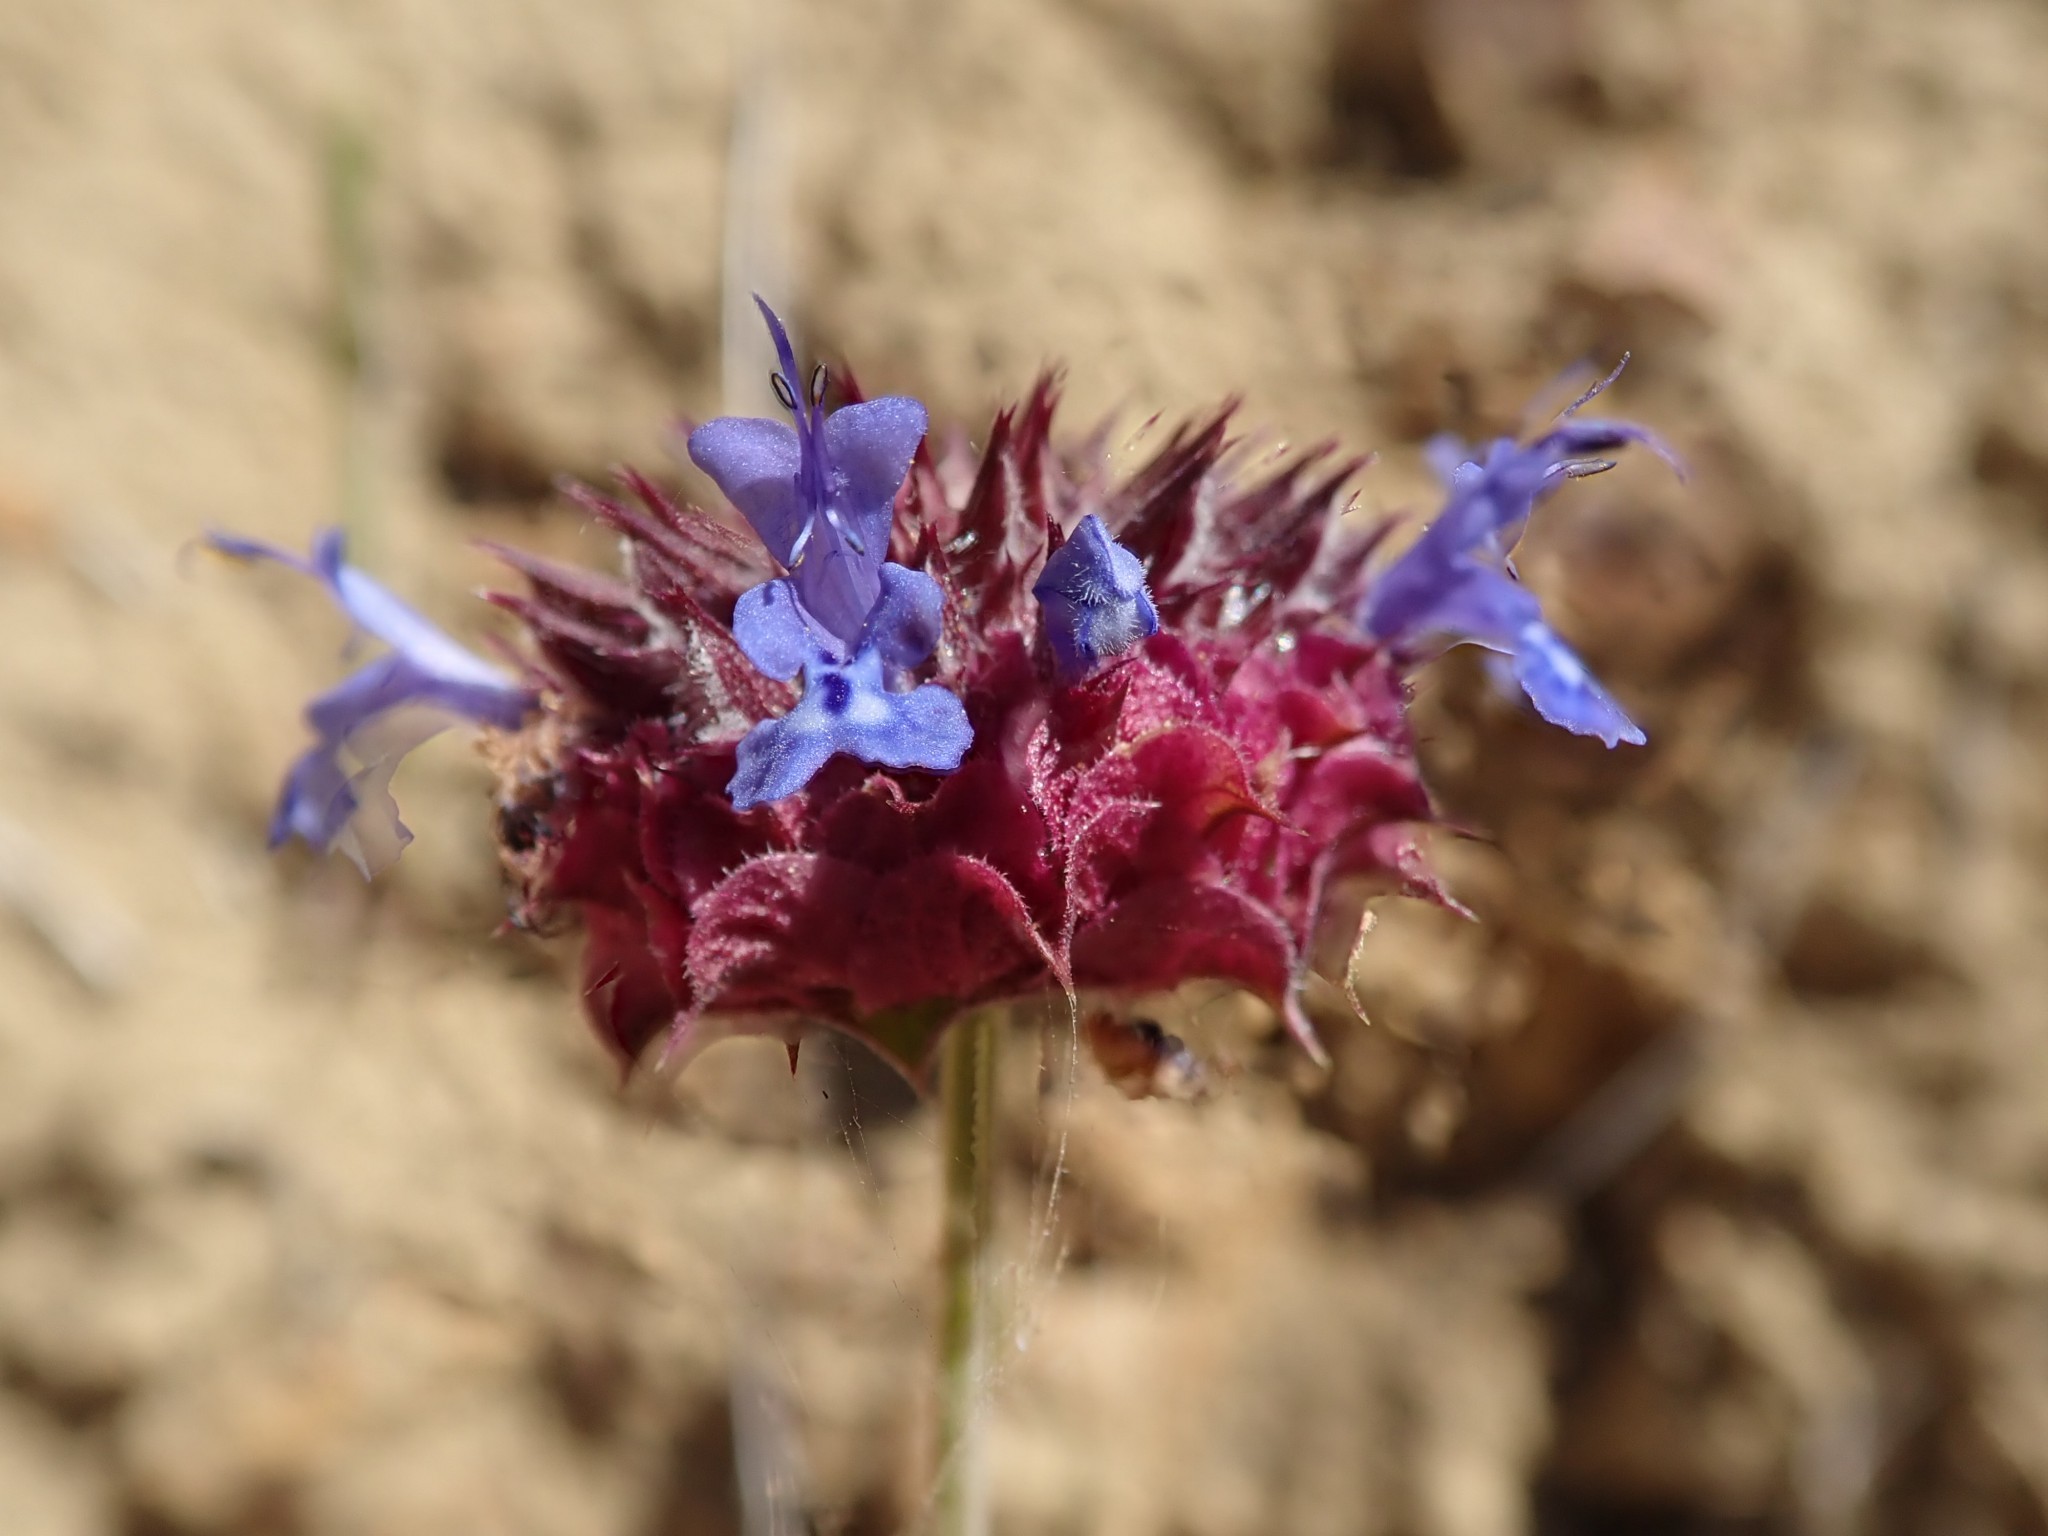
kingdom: Plantae
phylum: Tracheophyta
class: Magnoliopsida
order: Lamiales
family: Lamiaceae
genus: Salvia
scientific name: Salvia columbariae
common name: Chia
